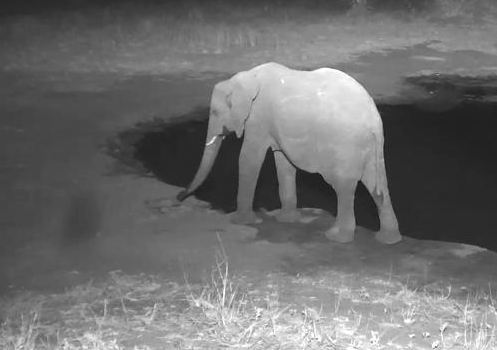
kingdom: Animalia
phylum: Chordata
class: Mammalia
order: Proboscidea
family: Elephantidae
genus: Loxodonta
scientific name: Loxodonta africana
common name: African elephant
